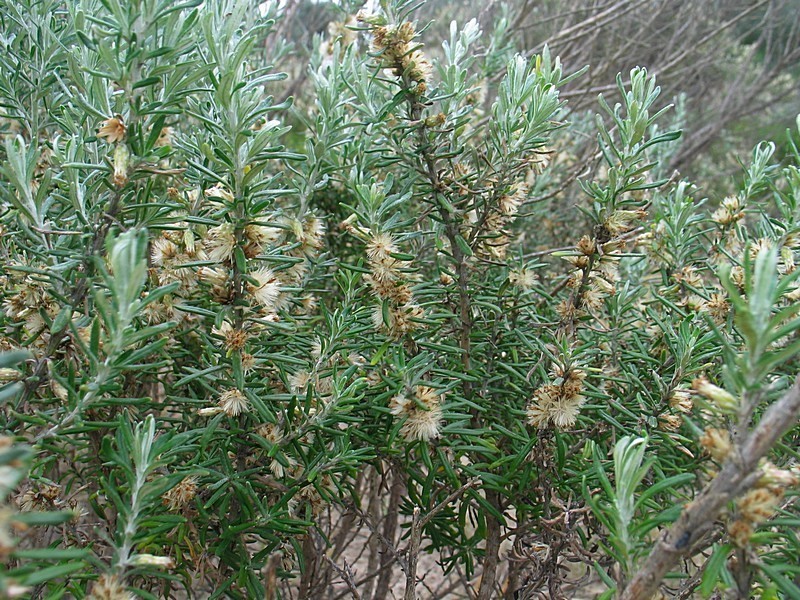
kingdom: Plantae
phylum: Tracheophyta
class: Magnoliopsida
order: Asterales
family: Asteraceae
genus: Olearia
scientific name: Olearia axillaris
